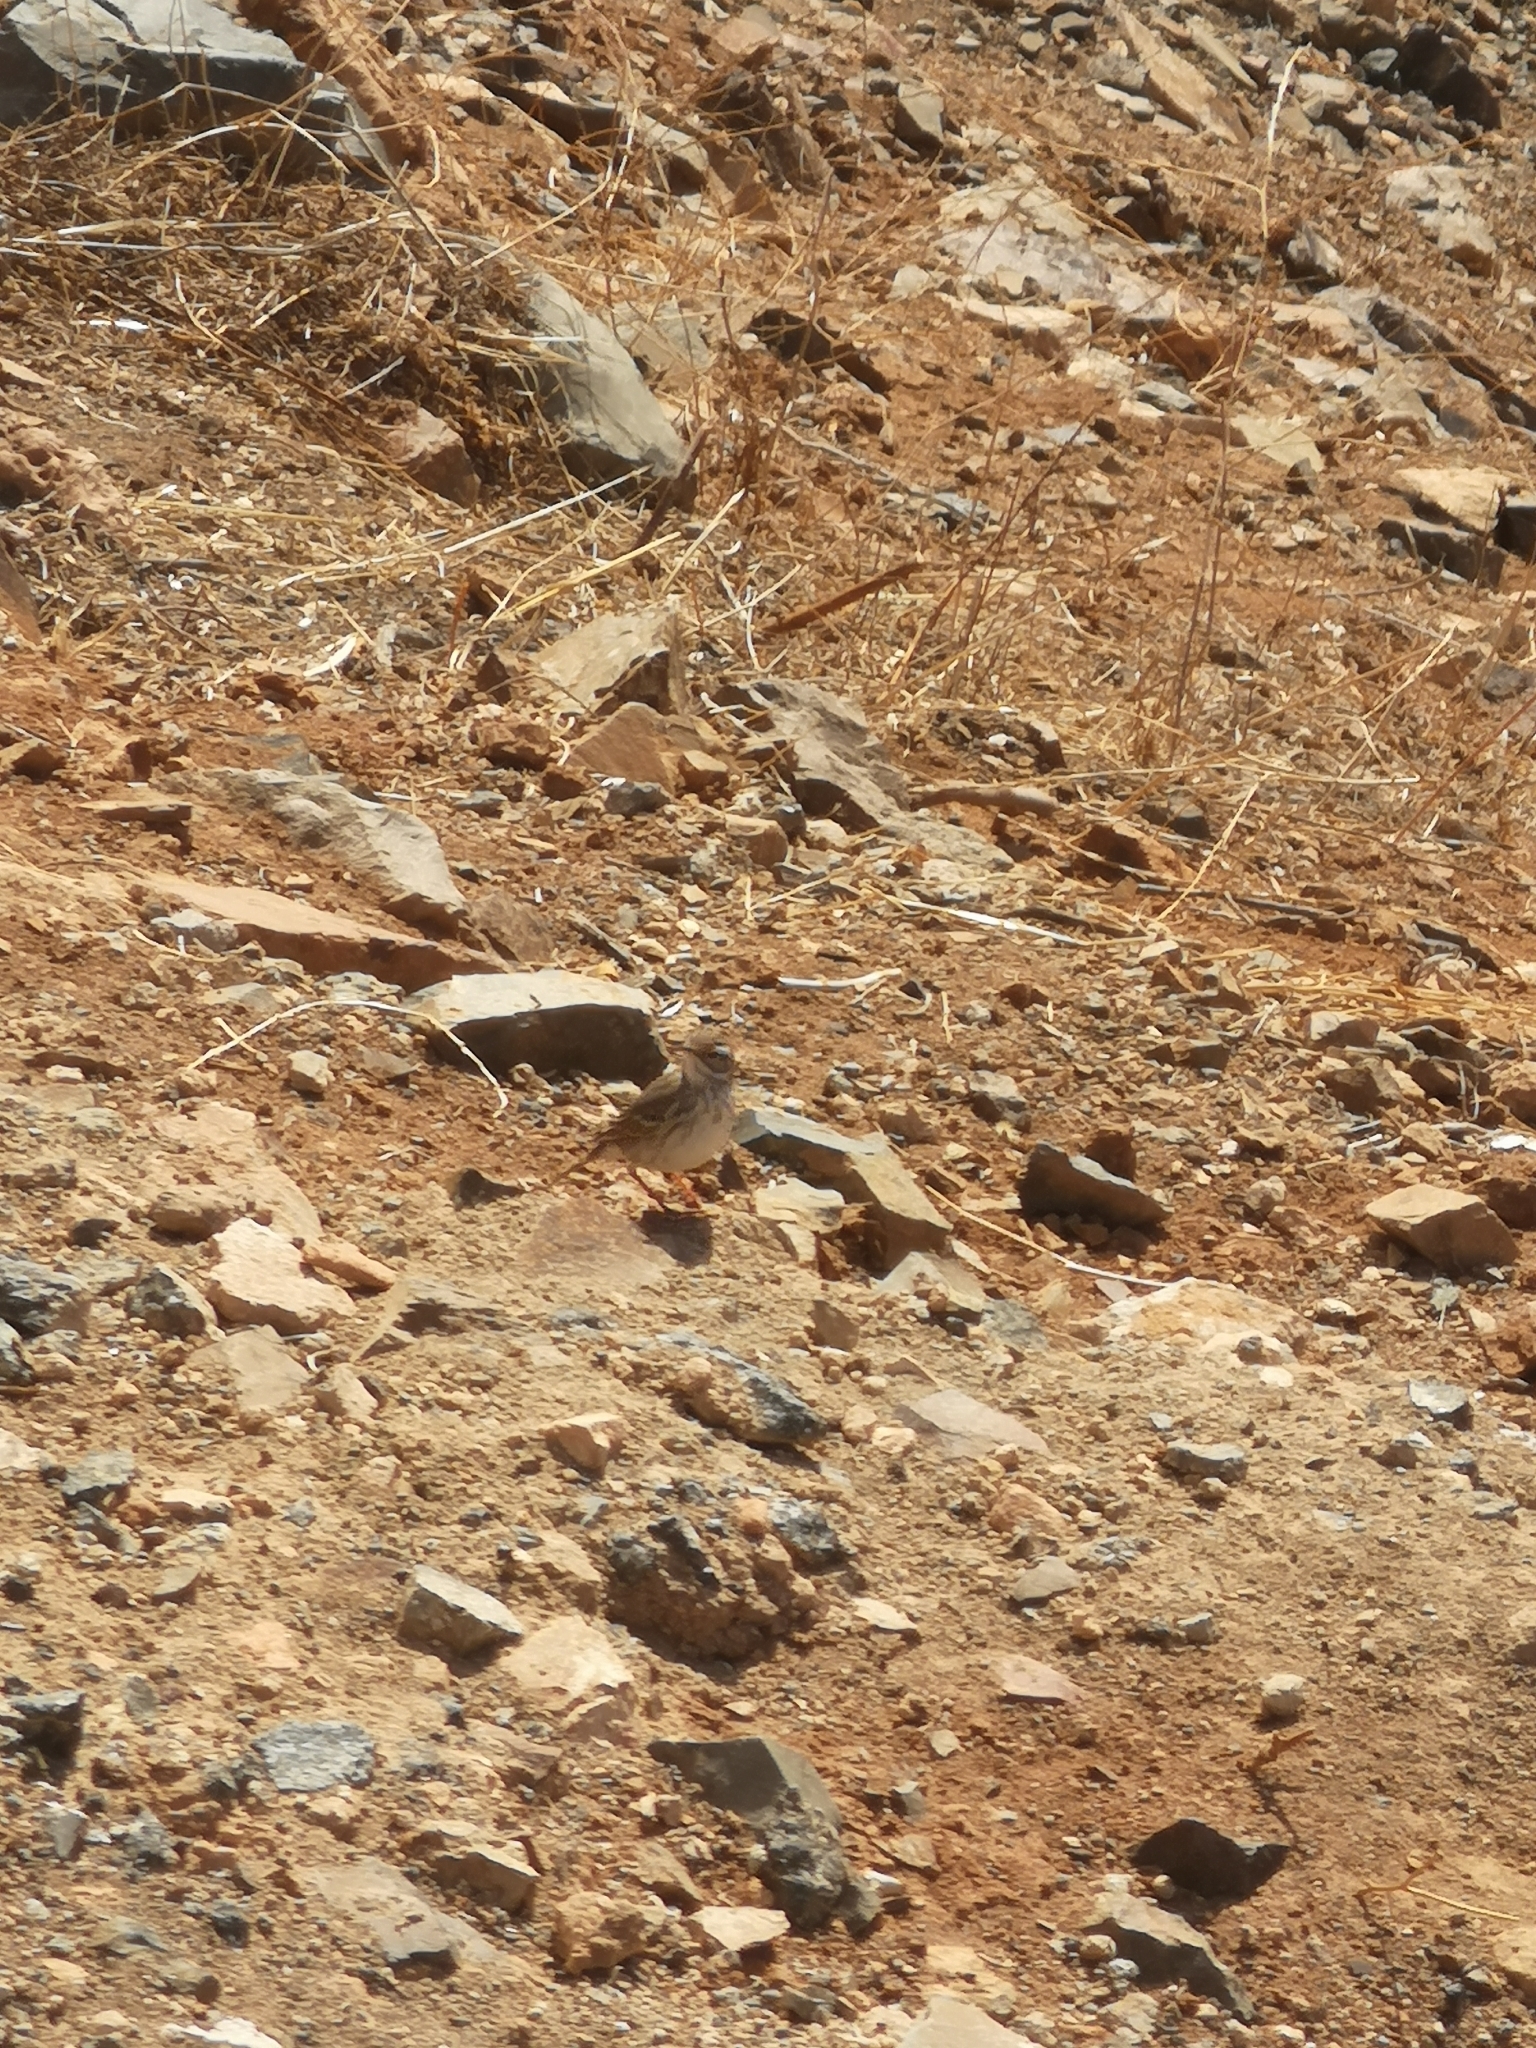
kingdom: Animalia
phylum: Chordata
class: Aves
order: Passeriformes
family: Motacillidae
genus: Anthus
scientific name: Anthus berthelotii
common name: Berthelot's pipit
